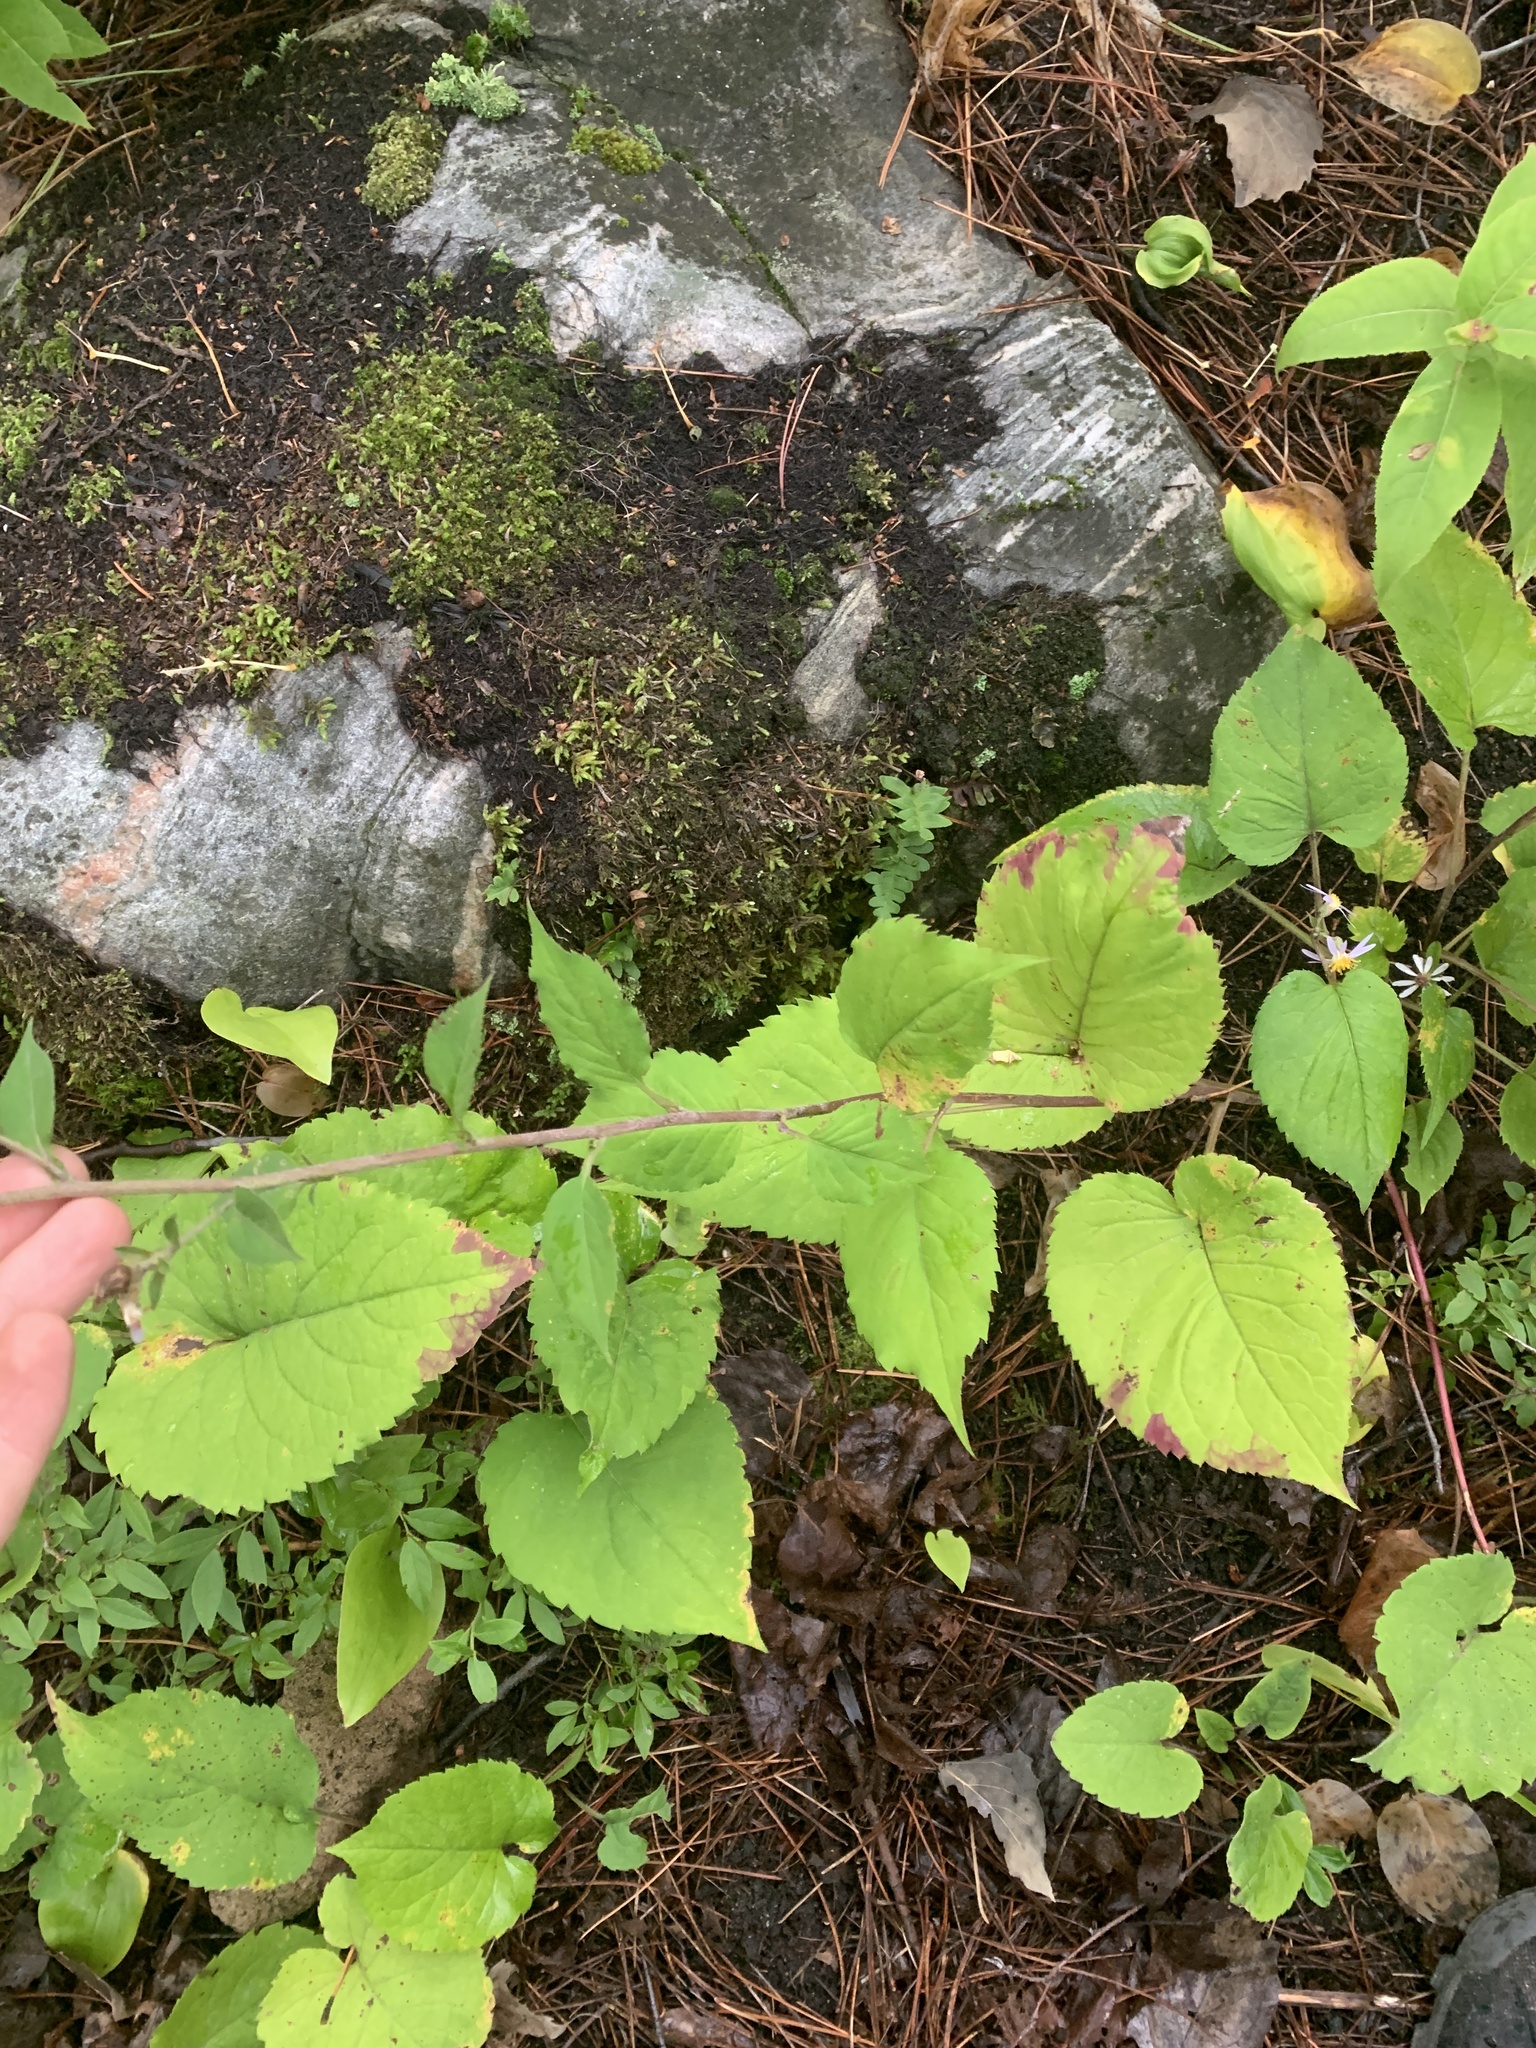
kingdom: Plantae
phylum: Tracheophyta
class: Magnoliopsida
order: Asterales
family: Asteraceae
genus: Eurybia
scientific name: Eurybia macrophylla
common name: Big-leaved aster
